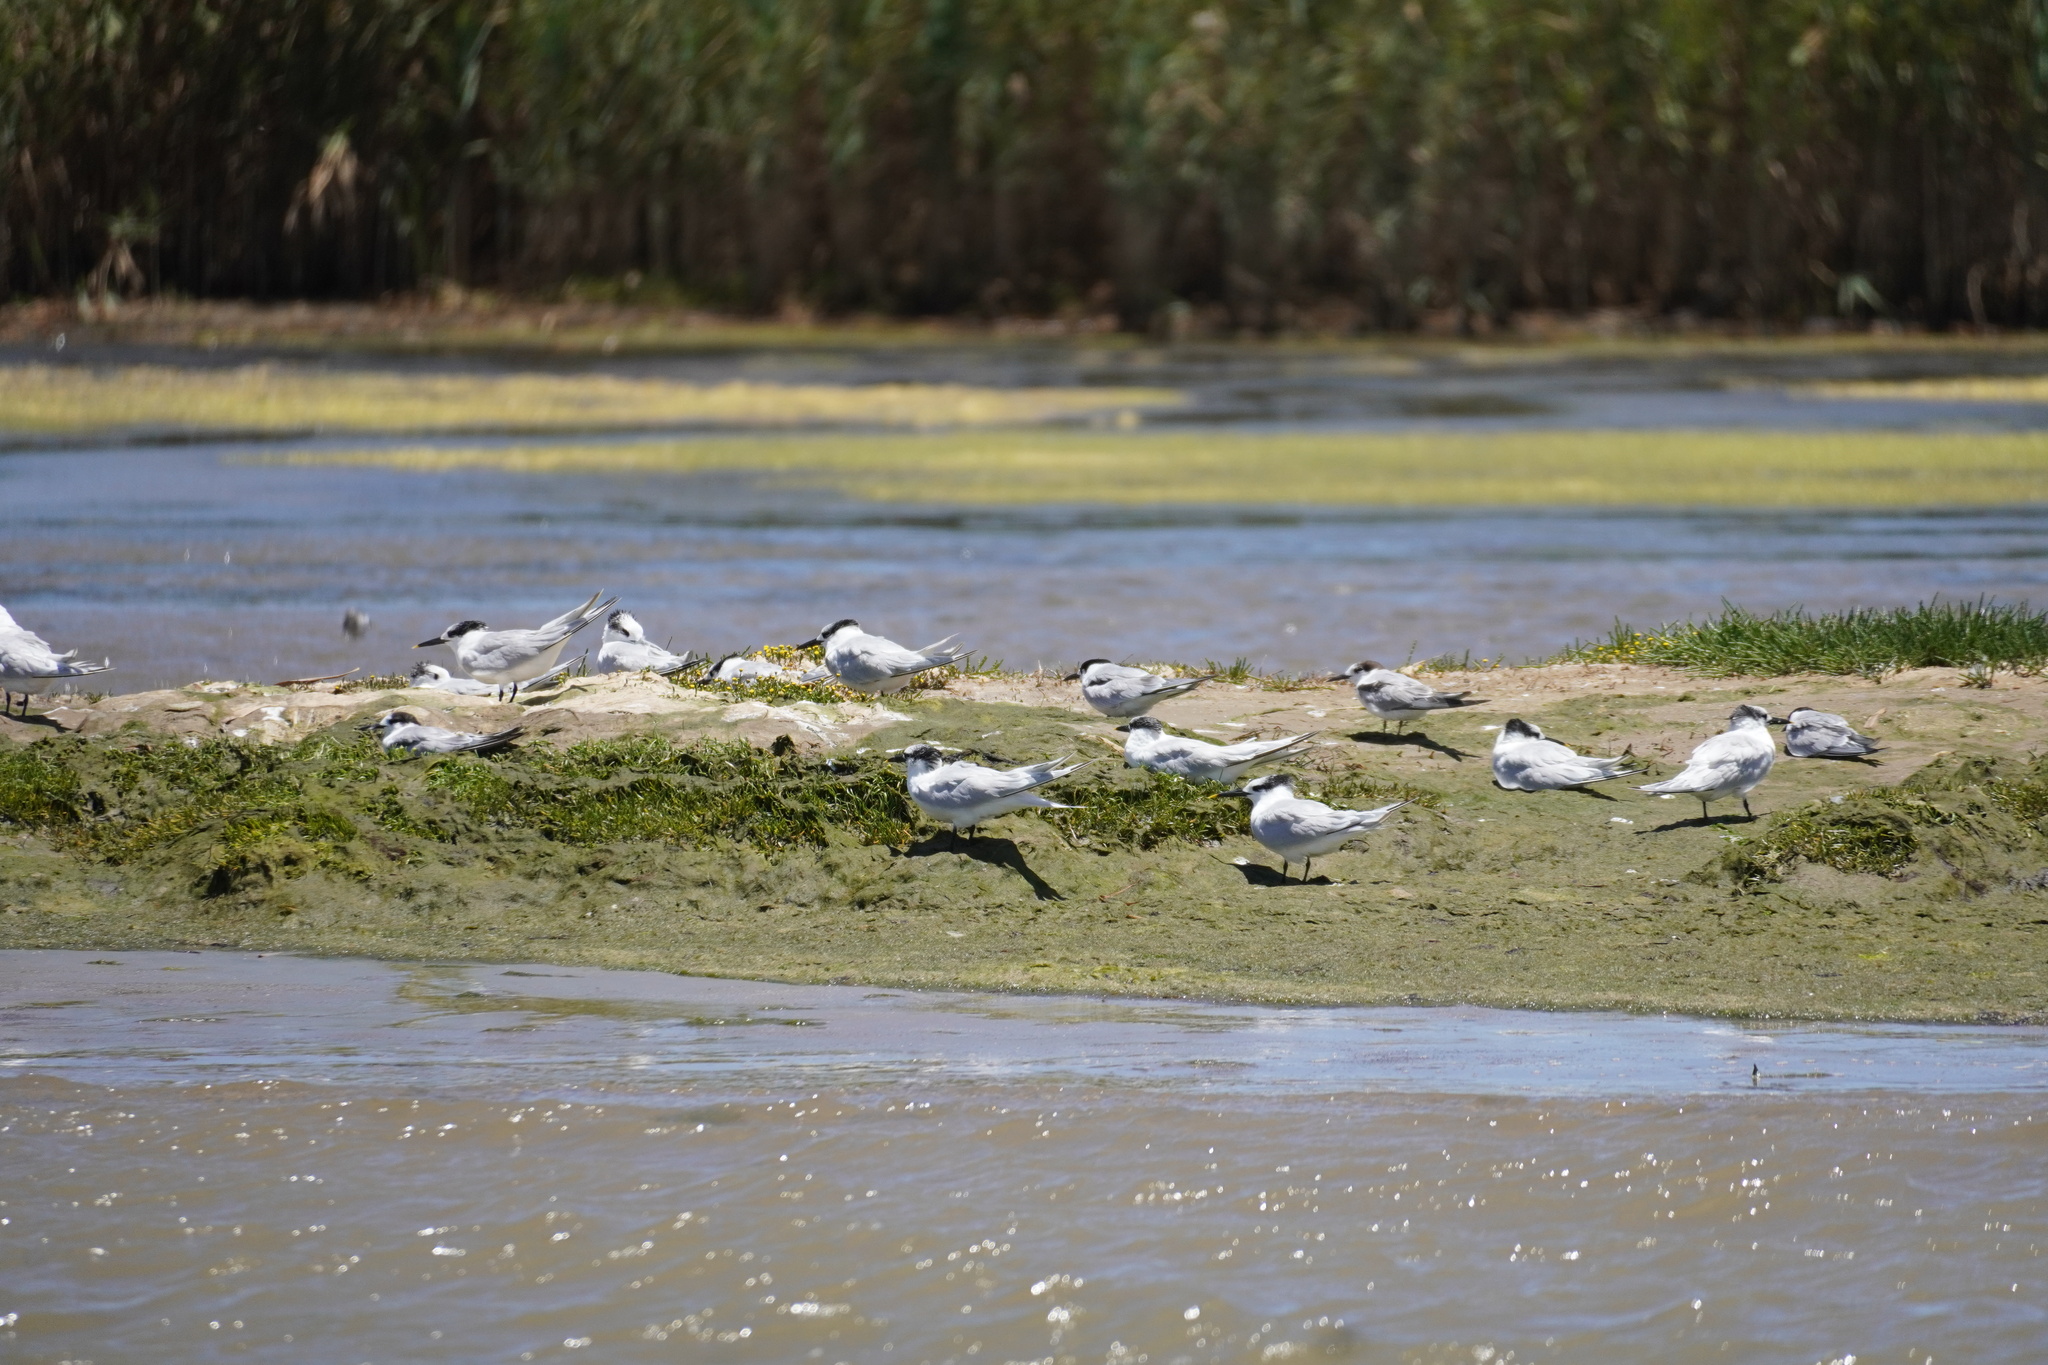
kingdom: Animalia
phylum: Chordata
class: Aves
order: Charadriiformes
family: Laridae
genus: Thalasseus
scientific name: Thalasseus sandvicensis
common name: Sandwich tern
